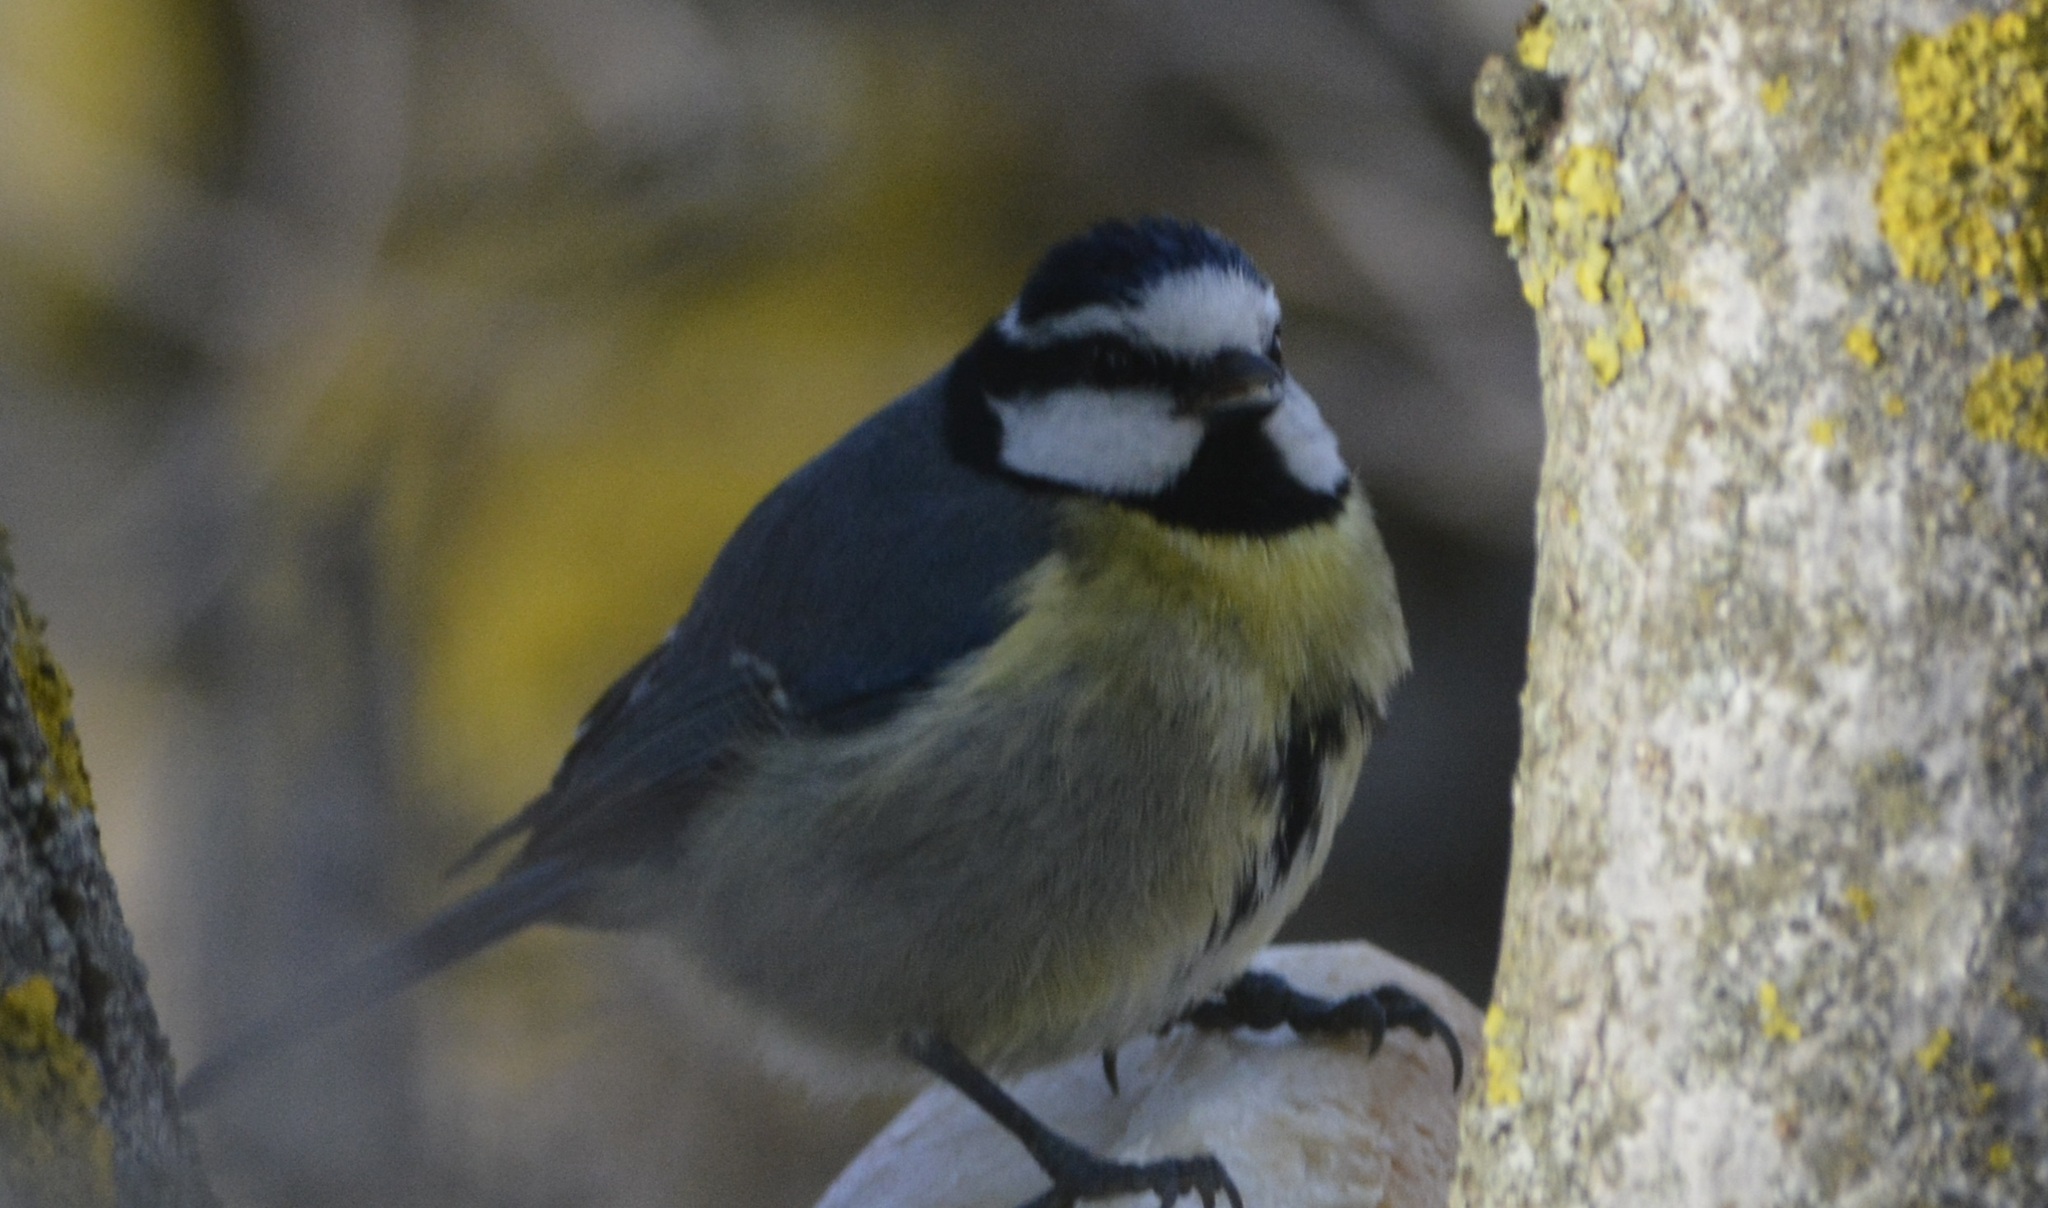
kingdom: Animalia
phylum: Chordata
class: Aves
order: Passeriformes
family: Paridae
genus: Cyanistes
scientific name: Cyanistes teneriffae
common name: African blue tit
